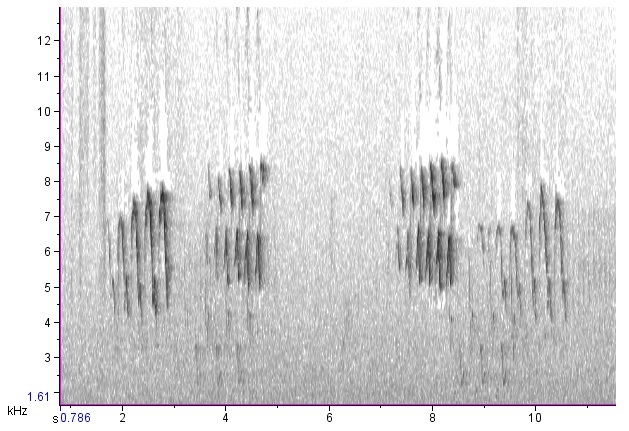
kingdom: Animalia
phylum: Chordata
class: Aves
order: Passeriformes
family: Parulidae
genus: Setophaga
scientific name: Setophaga ruticilla
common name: American redstart
